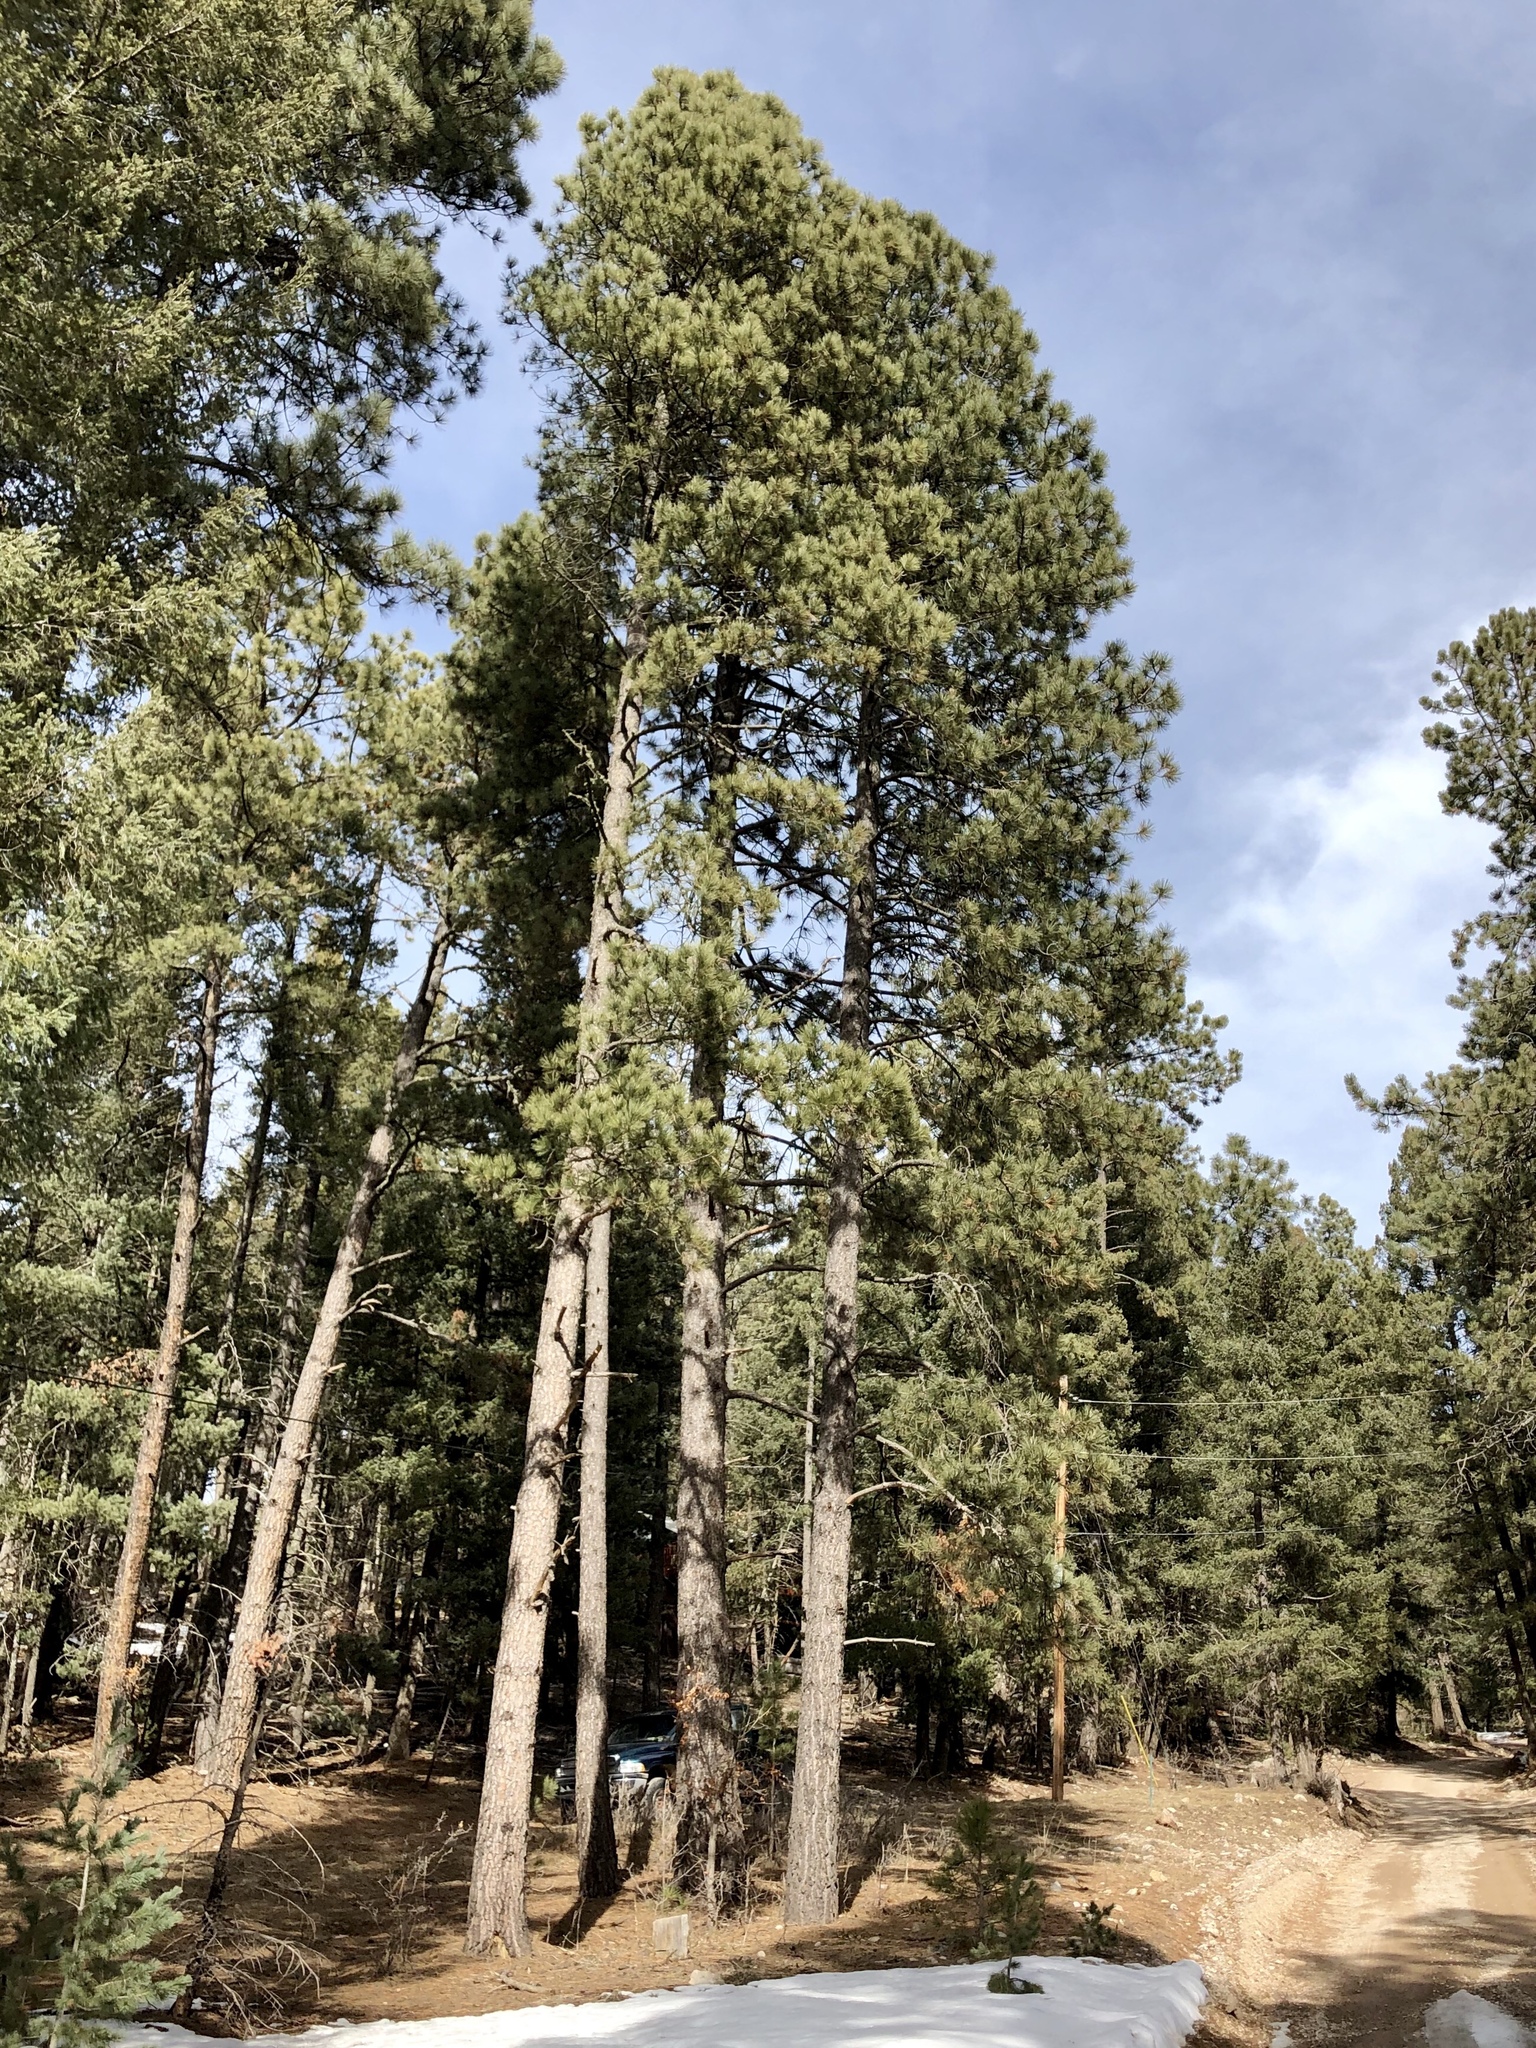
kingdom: Plantae
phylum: Tracheophyta
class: Pinopsida
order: Pinales
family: Pinaceae
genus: Pinus
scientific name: Pinus ponderosa
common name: Western yellow-pine
